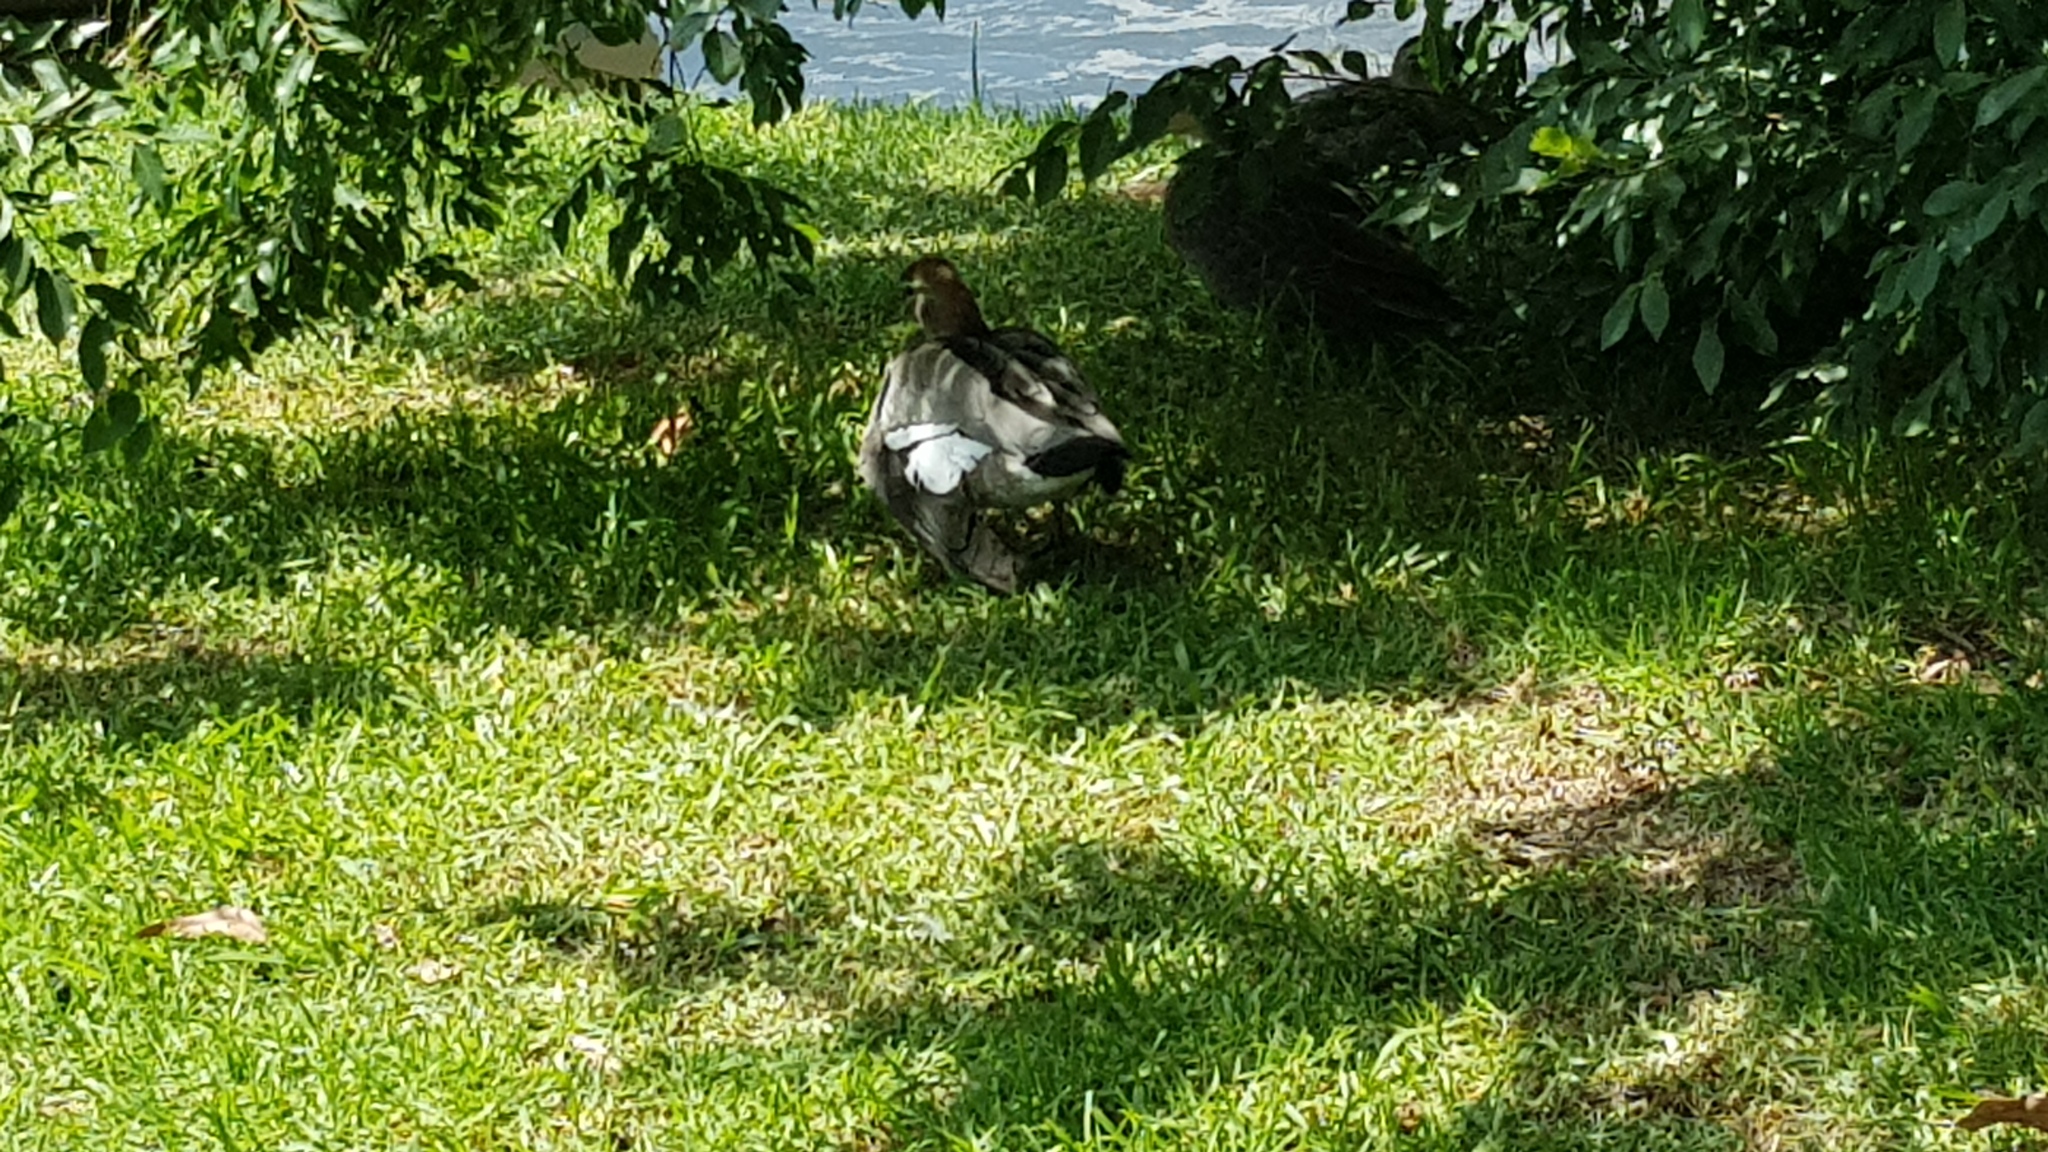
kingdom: Animalia
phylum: Chordata
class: Aves
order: Anseriformes
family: Anatidae
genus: Chenonetta
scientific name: Chenonetta jubata
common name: Maned duck
